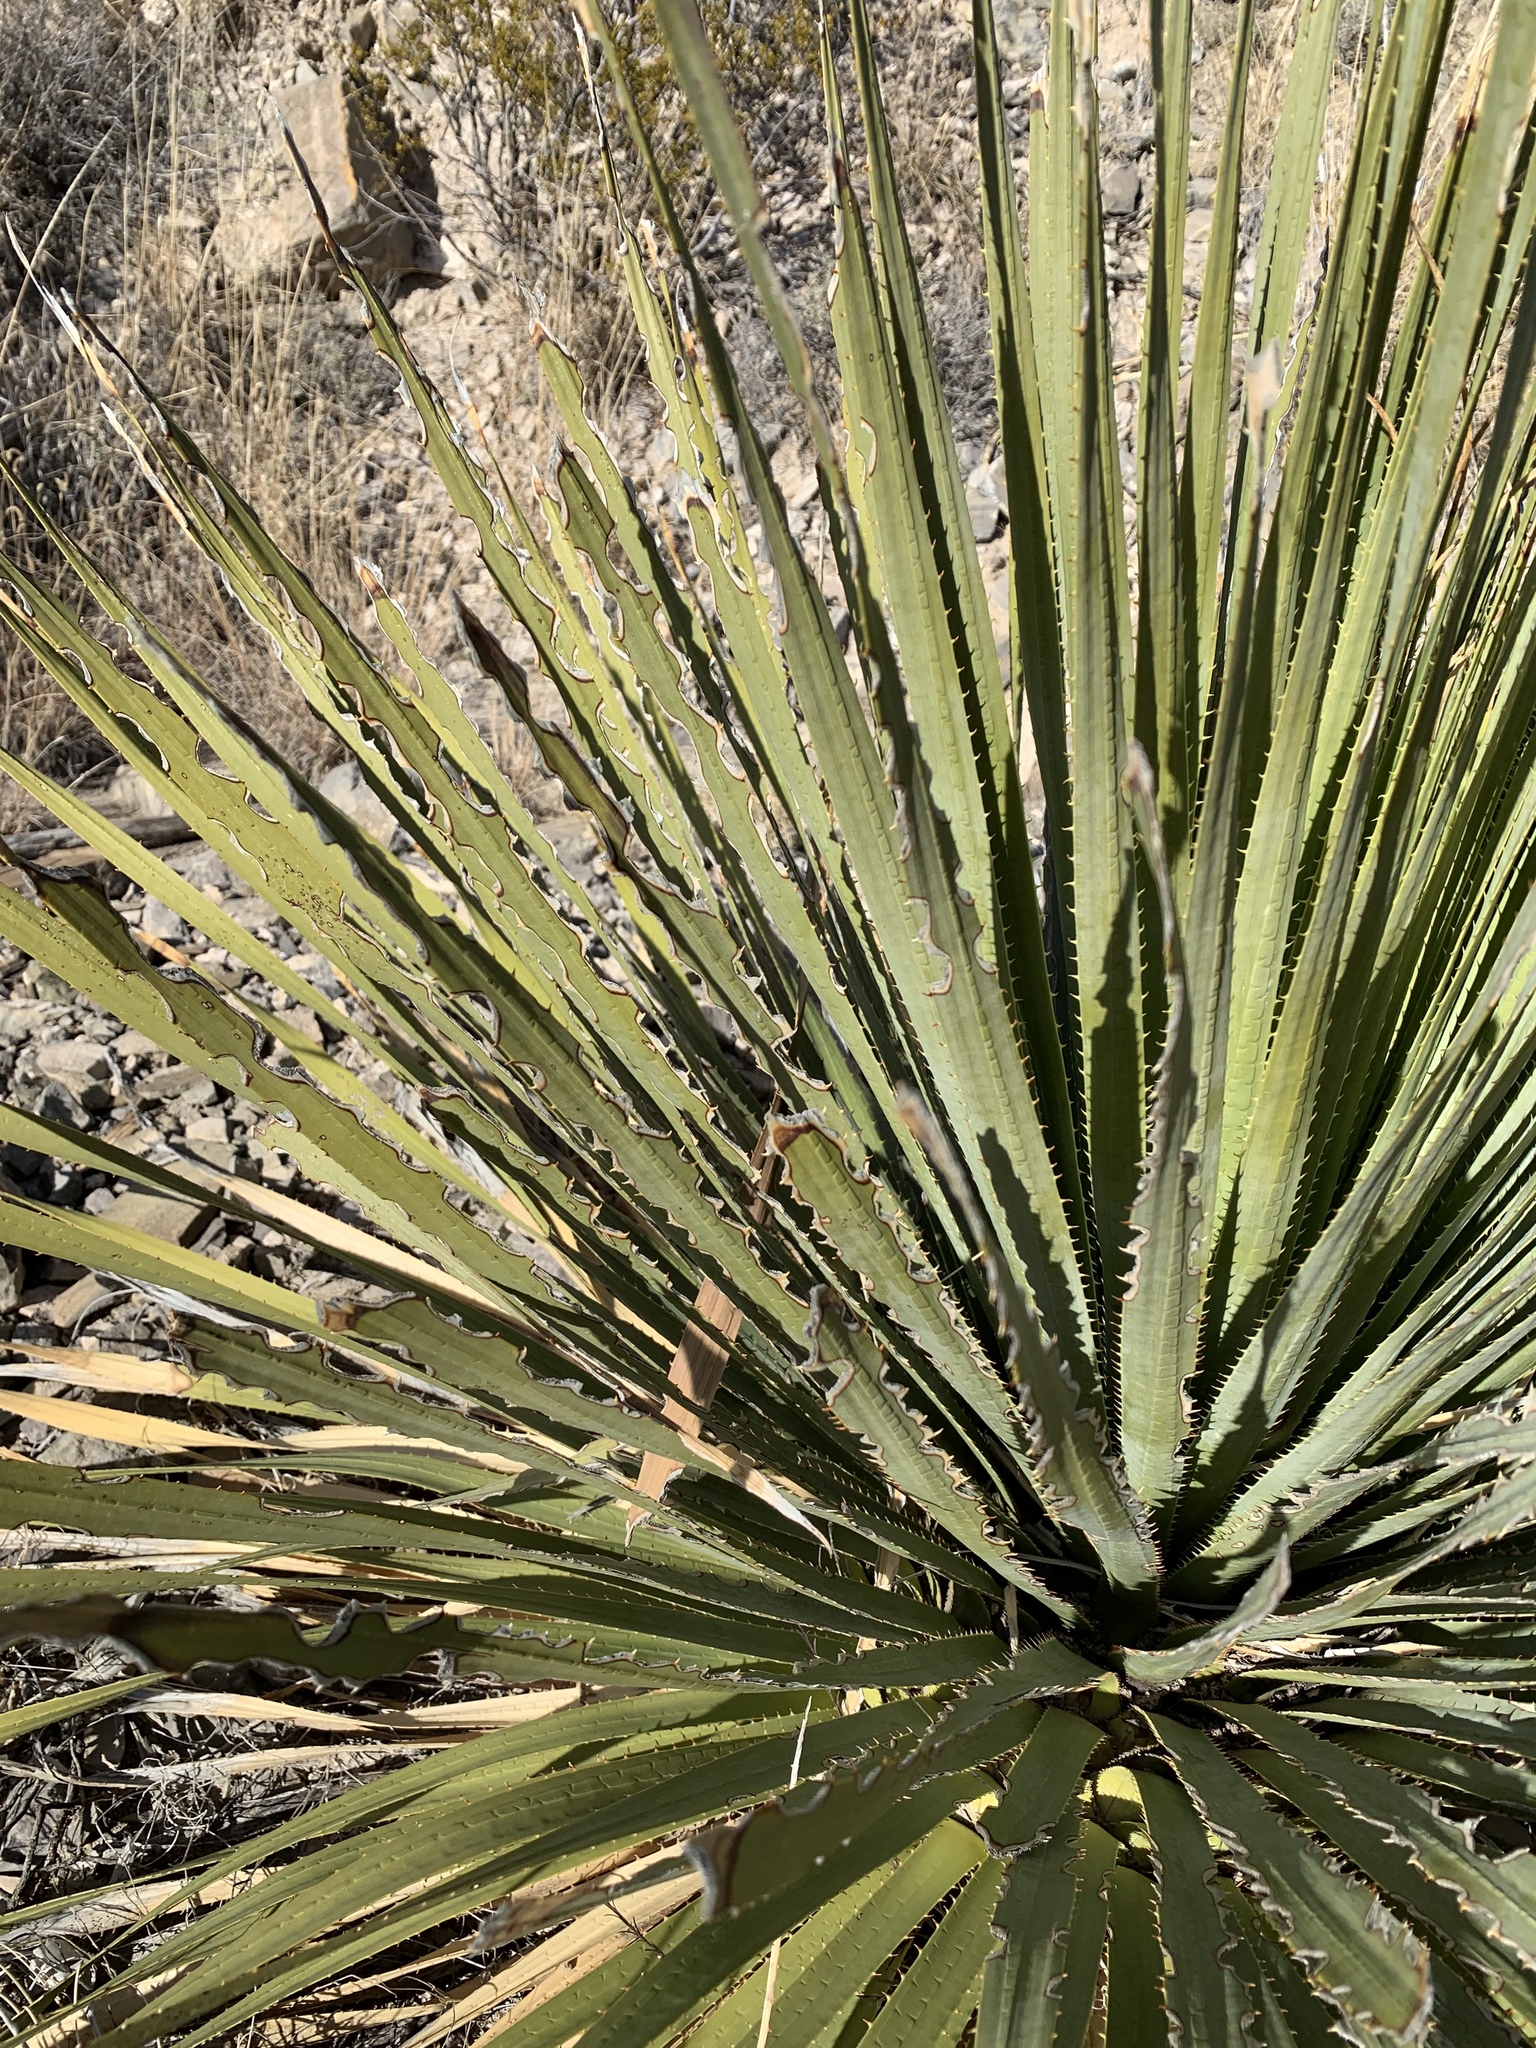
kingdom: Plantae
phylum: Tracheophyta
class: Liliopsida
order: Asparagales
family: Asparagaceae
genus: Dasylirion
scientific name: Dasylirion wheeleri
